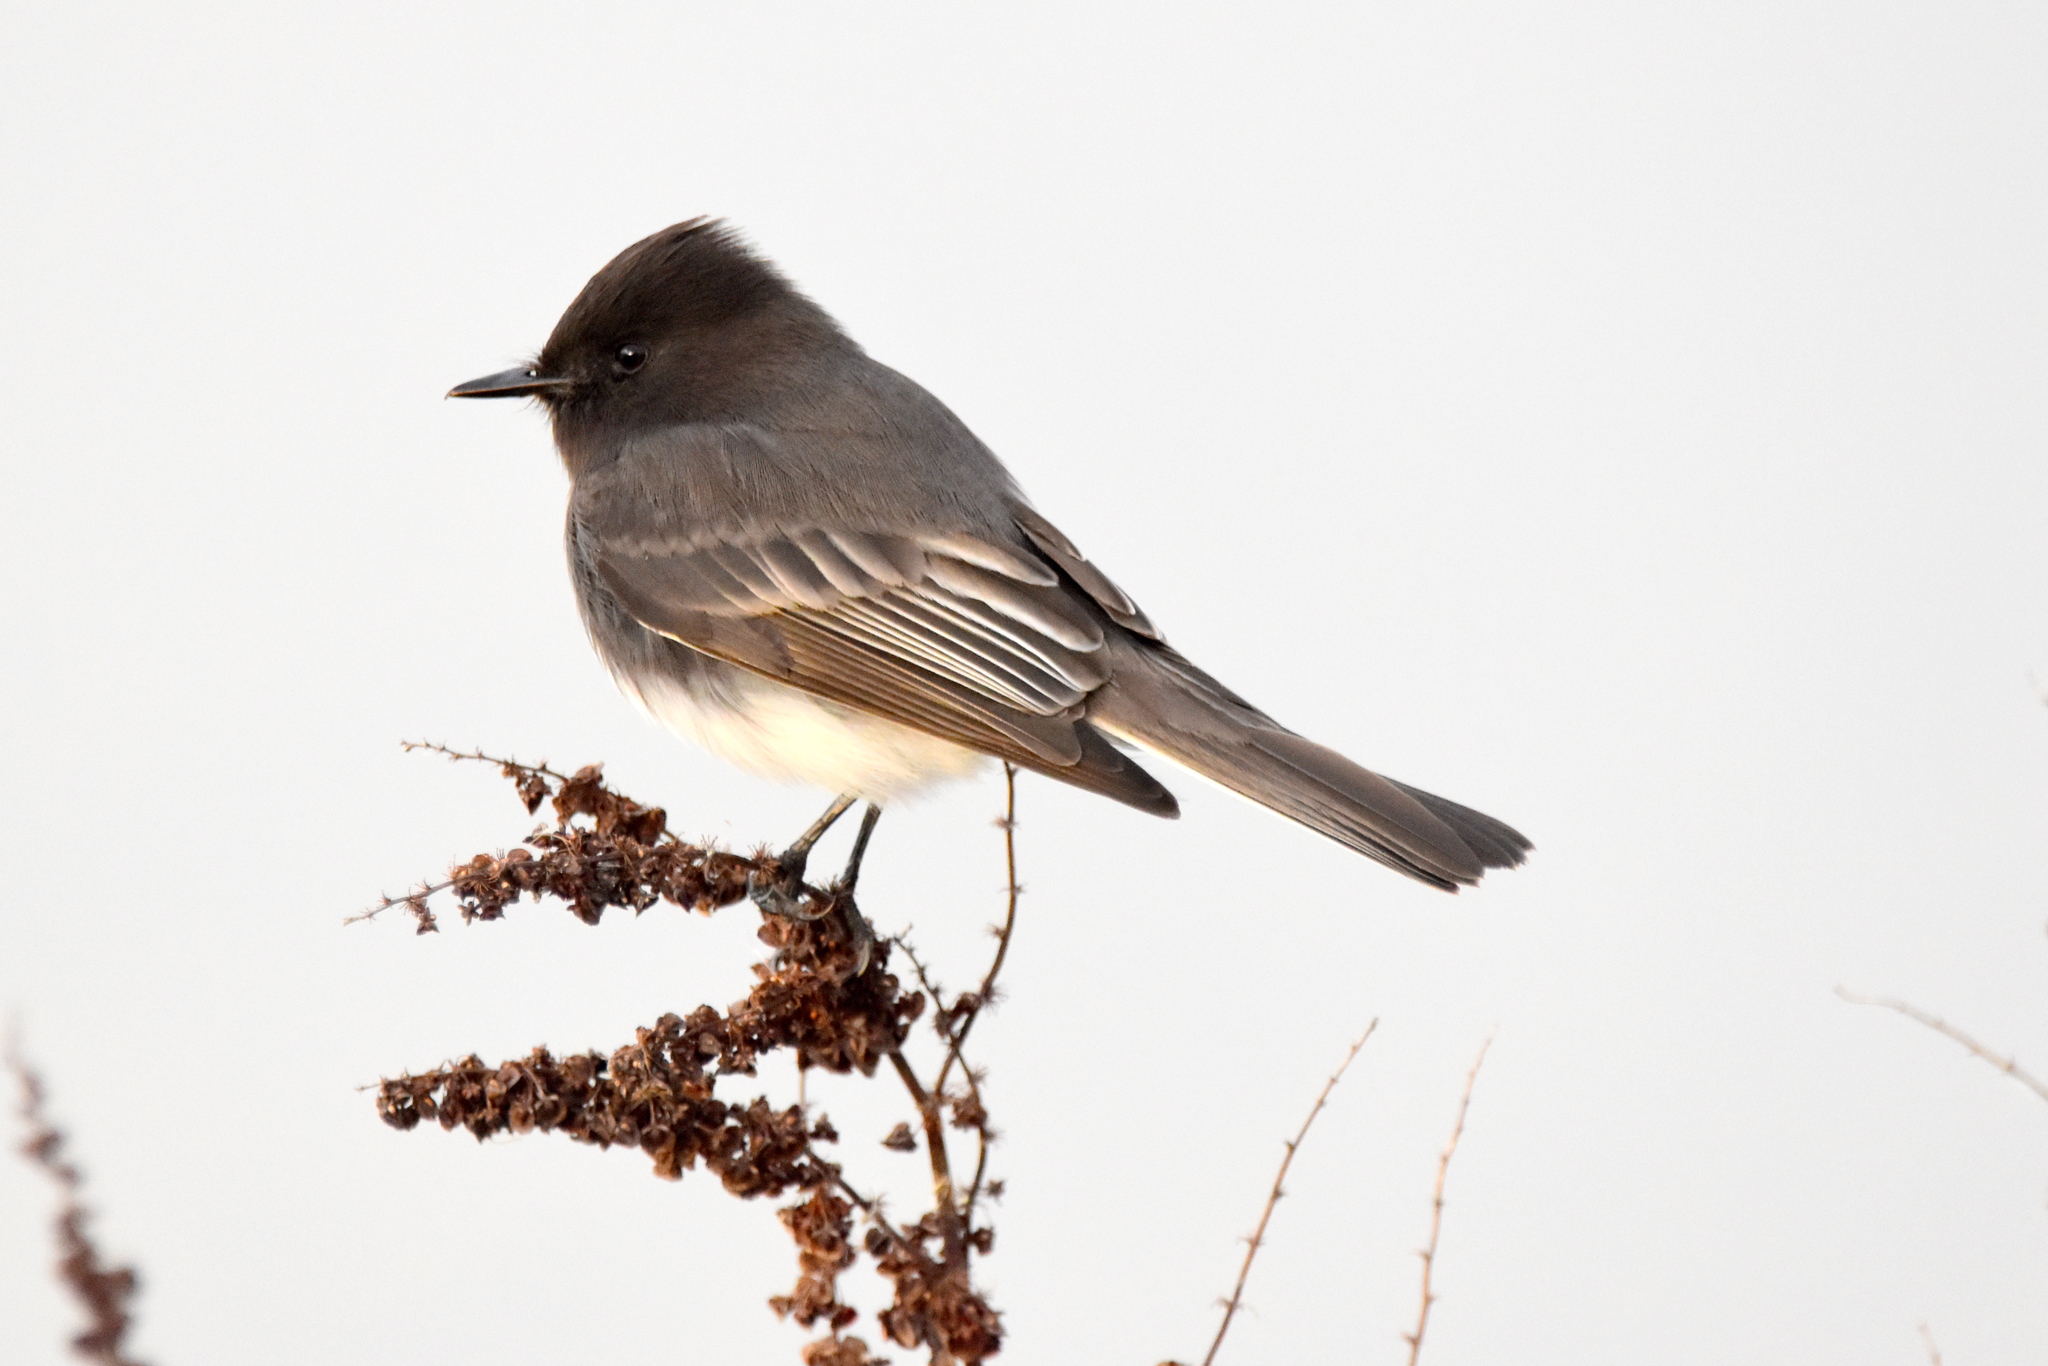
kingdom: Animalia
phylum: Chordata
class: Aves
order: Passeriformes
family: Tyrannidae
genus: Sayornis
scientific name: Sayornis nigricans
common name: Black phoebe
